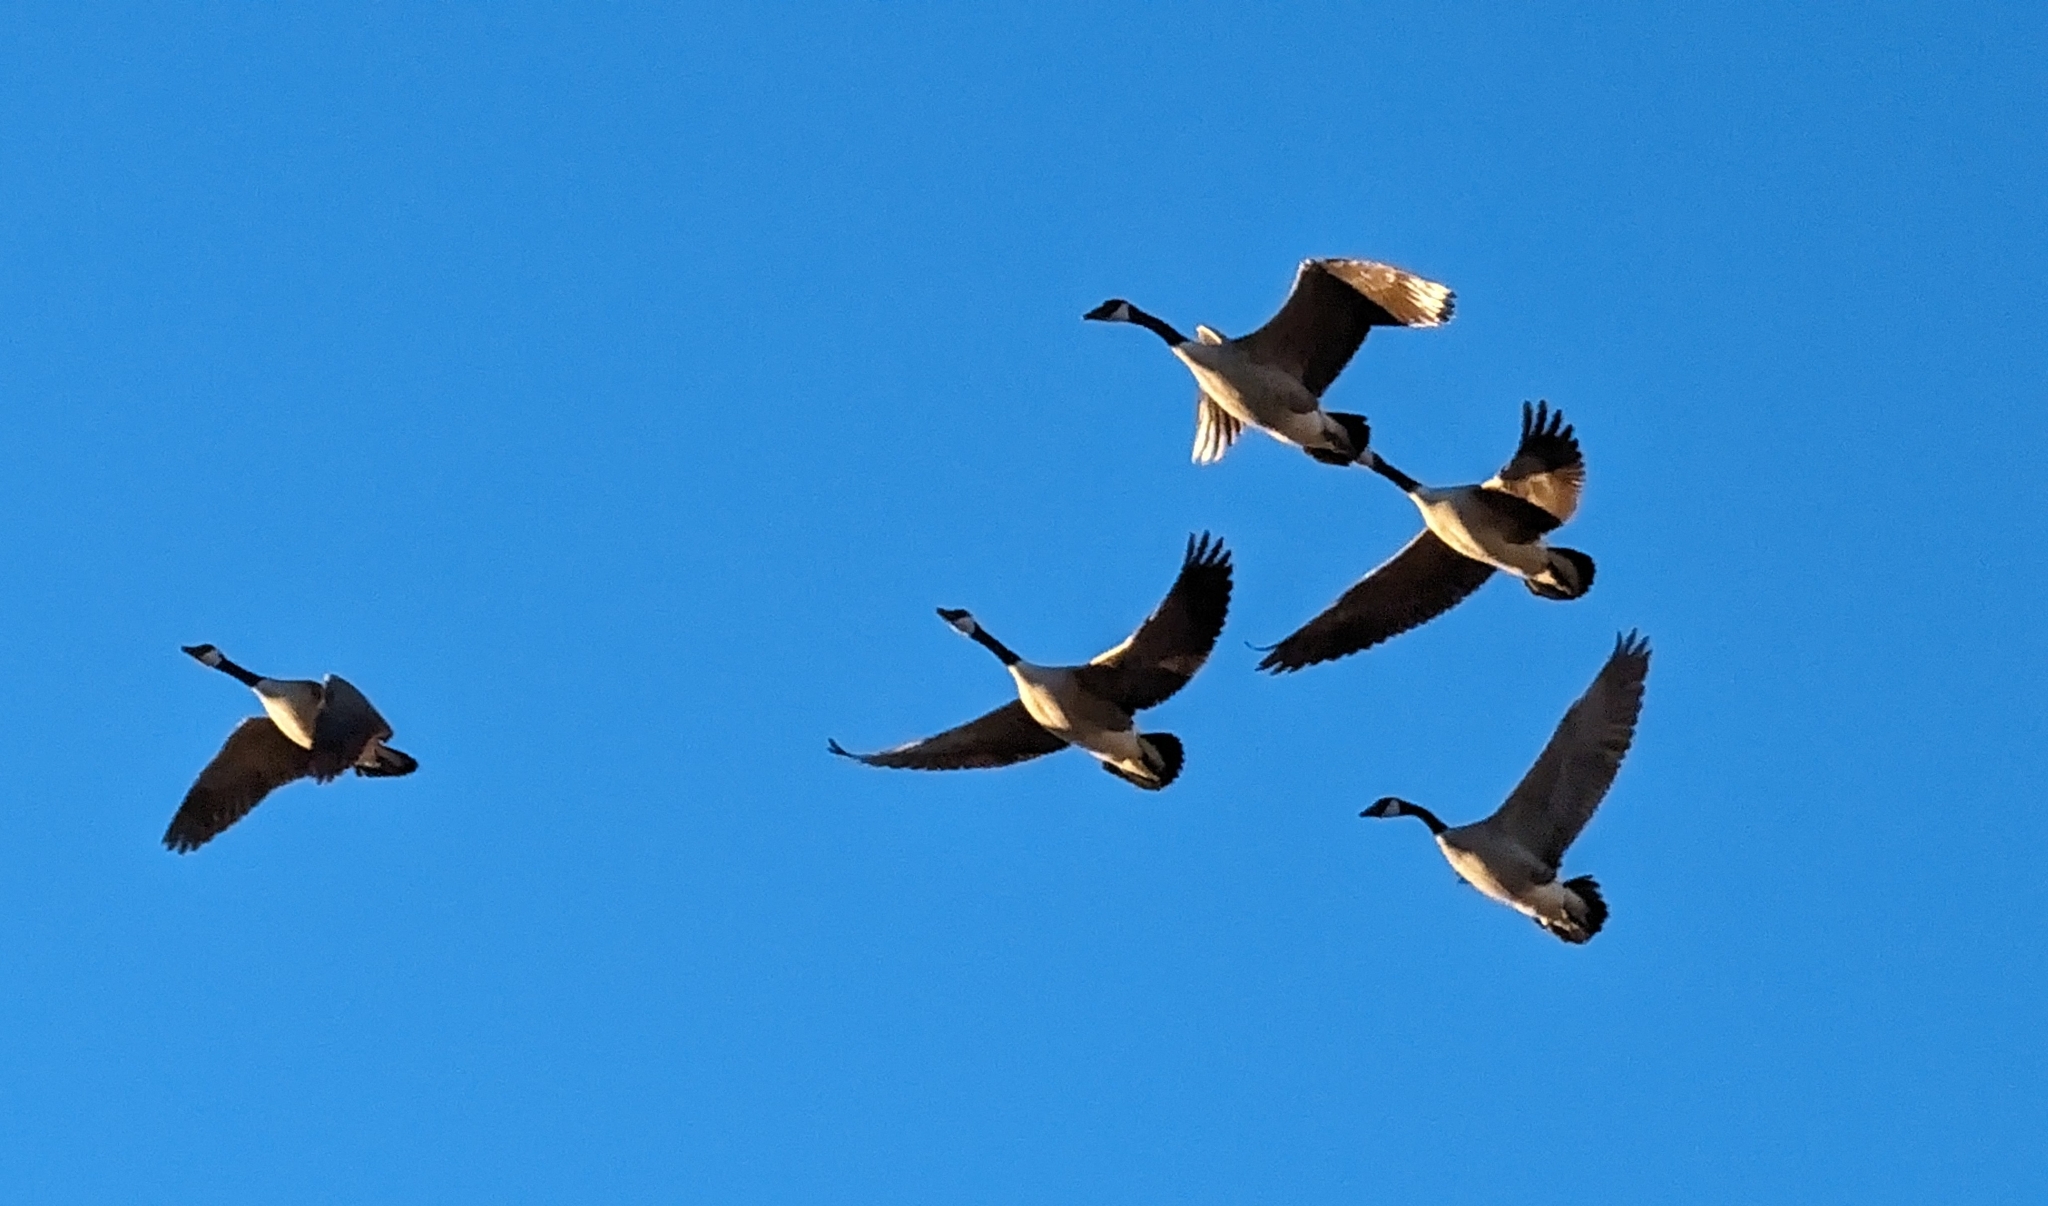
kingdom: Animalia
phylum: Chordata
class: Aves
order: Anseriformes
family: Anatidae
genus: Branta
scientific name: Branta canadensis
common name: Canada goose
